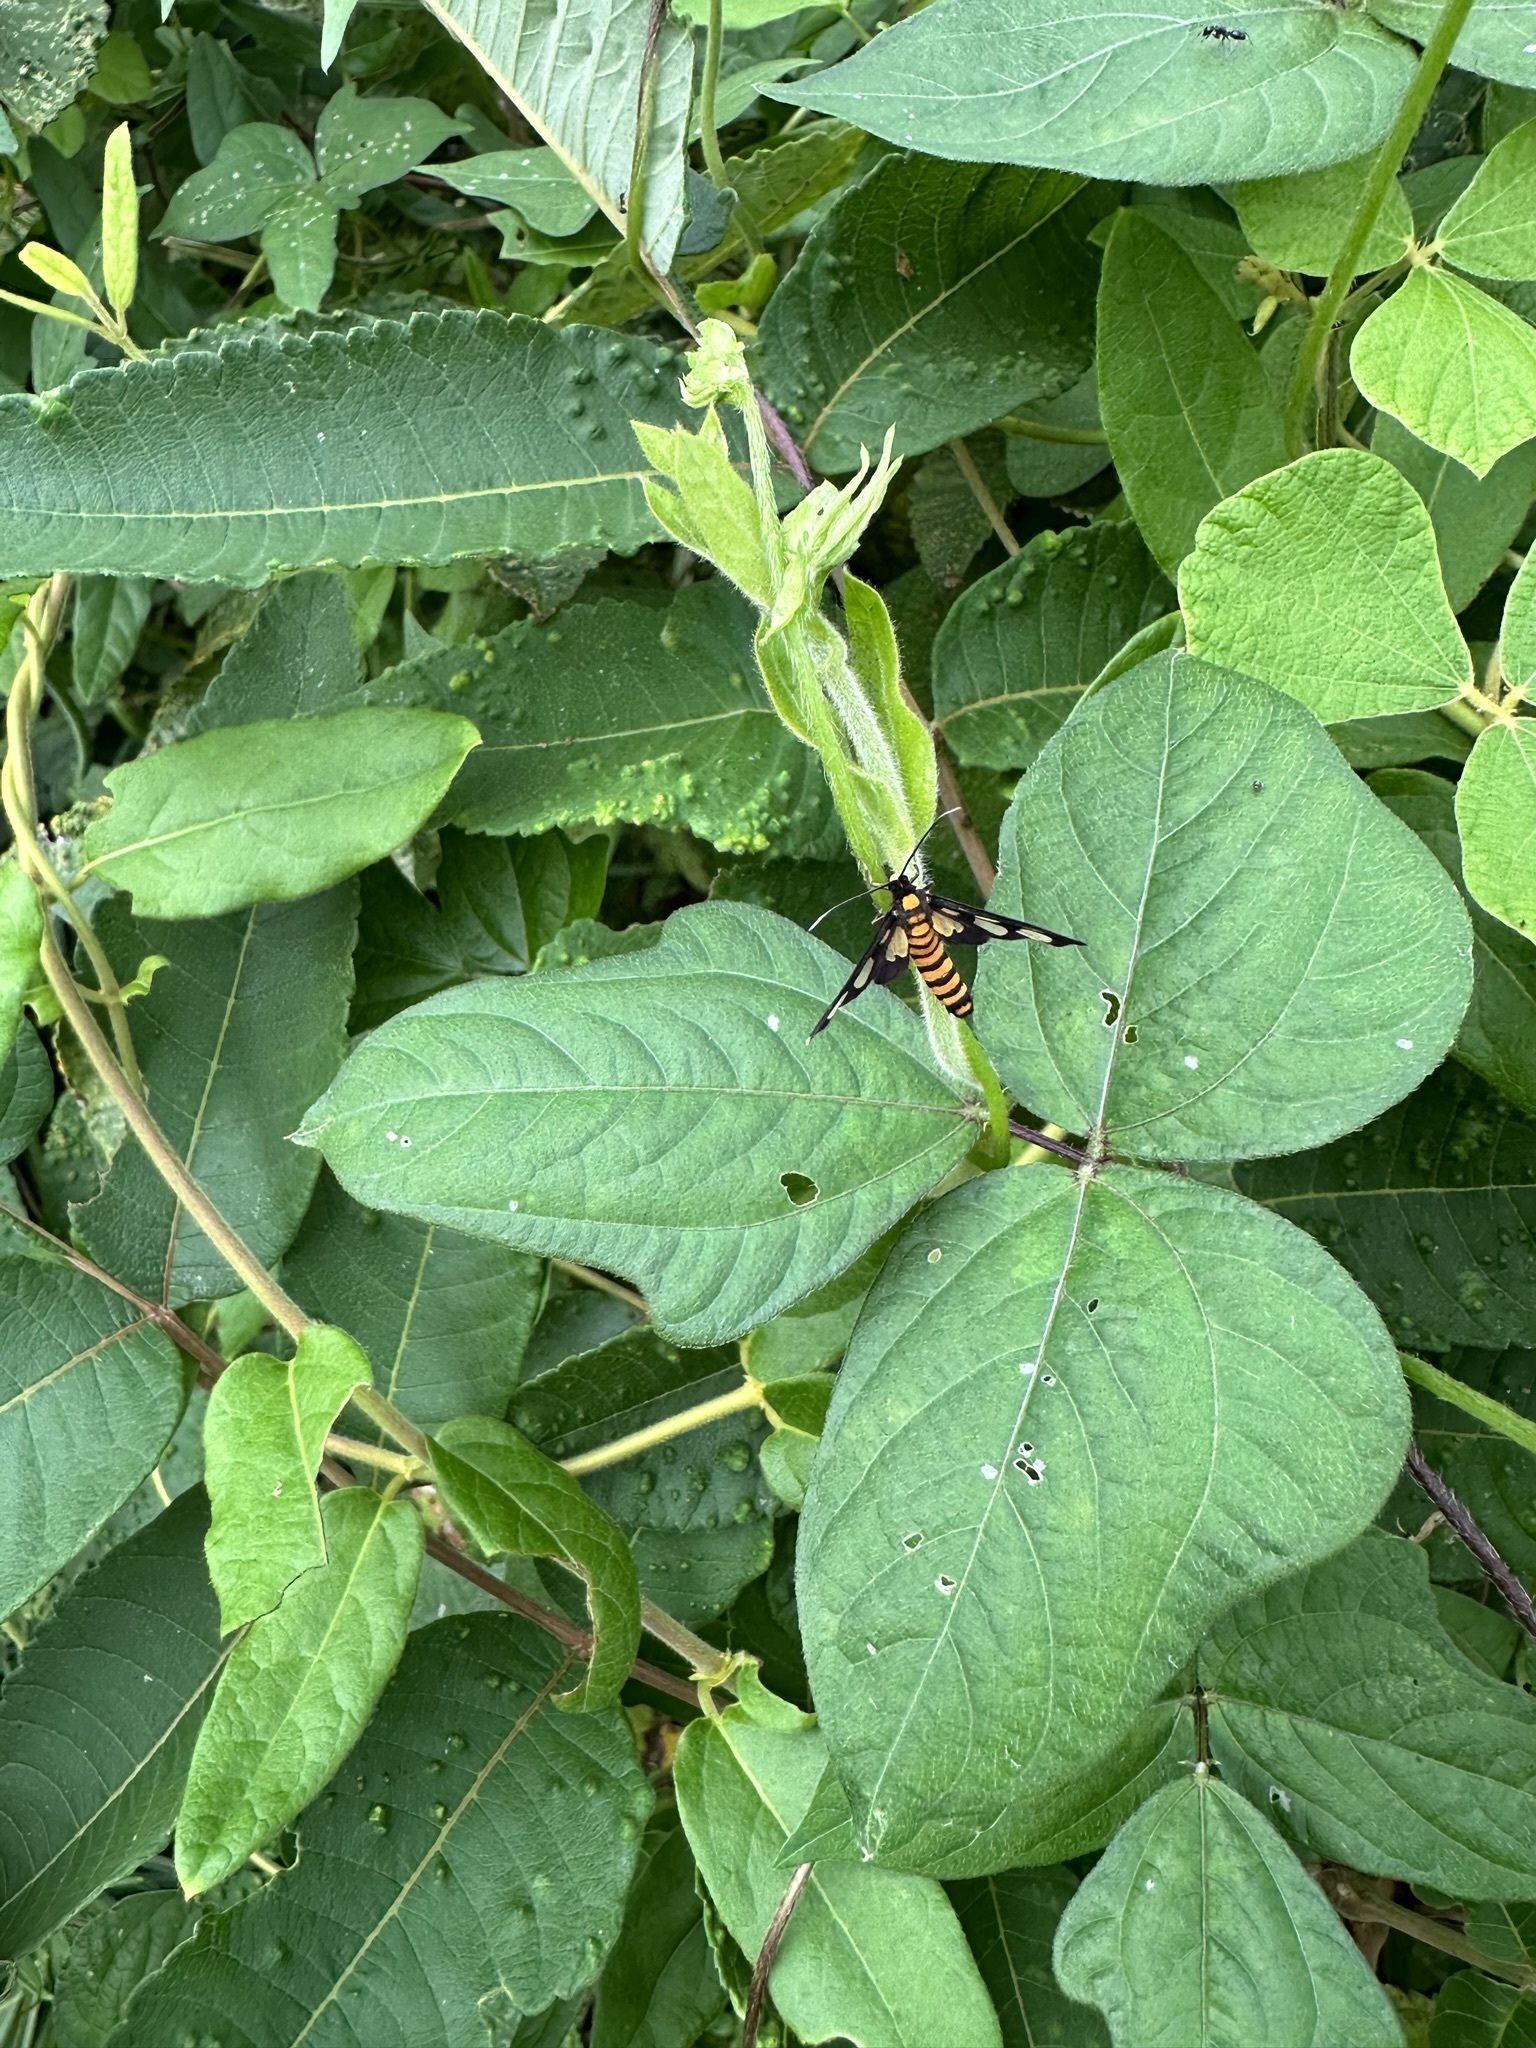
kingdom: Animalia
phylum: Arthropoda
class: Insecta
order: Lepidoptera
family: Erebidae
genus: Amata
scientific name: Amata germana
